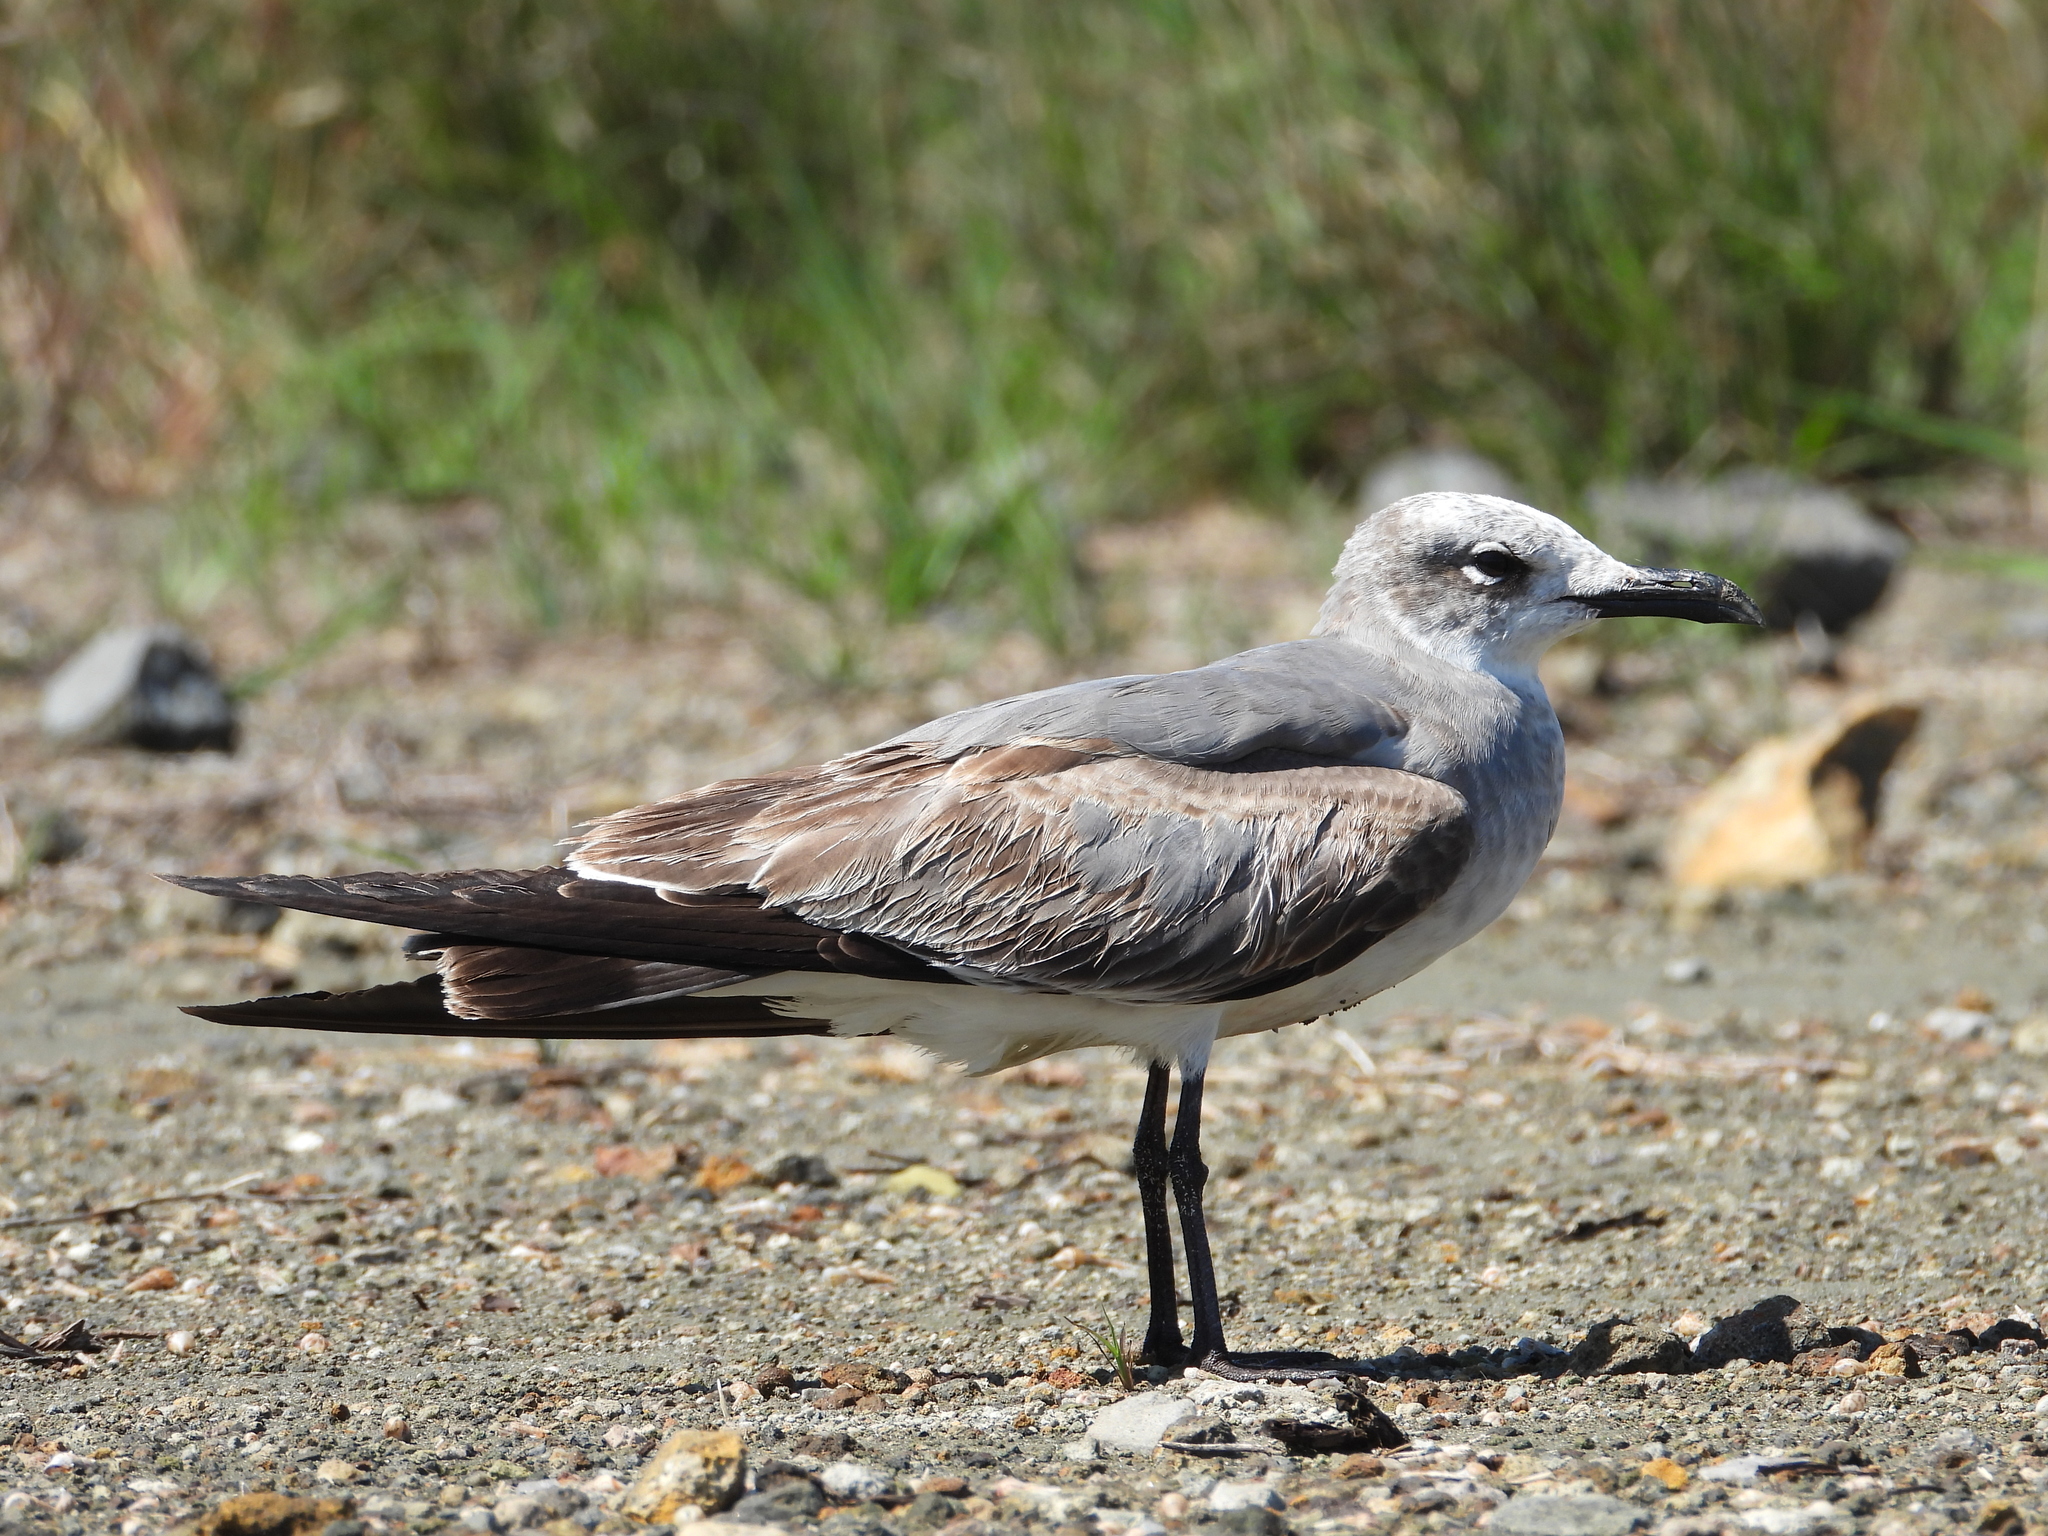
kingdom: Animalia
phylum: Chordata
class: Aves
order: Charadriiformes
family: Laridae
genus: Leucophaeus
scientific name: Leucophaeus atricilla
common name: Laughing gull
